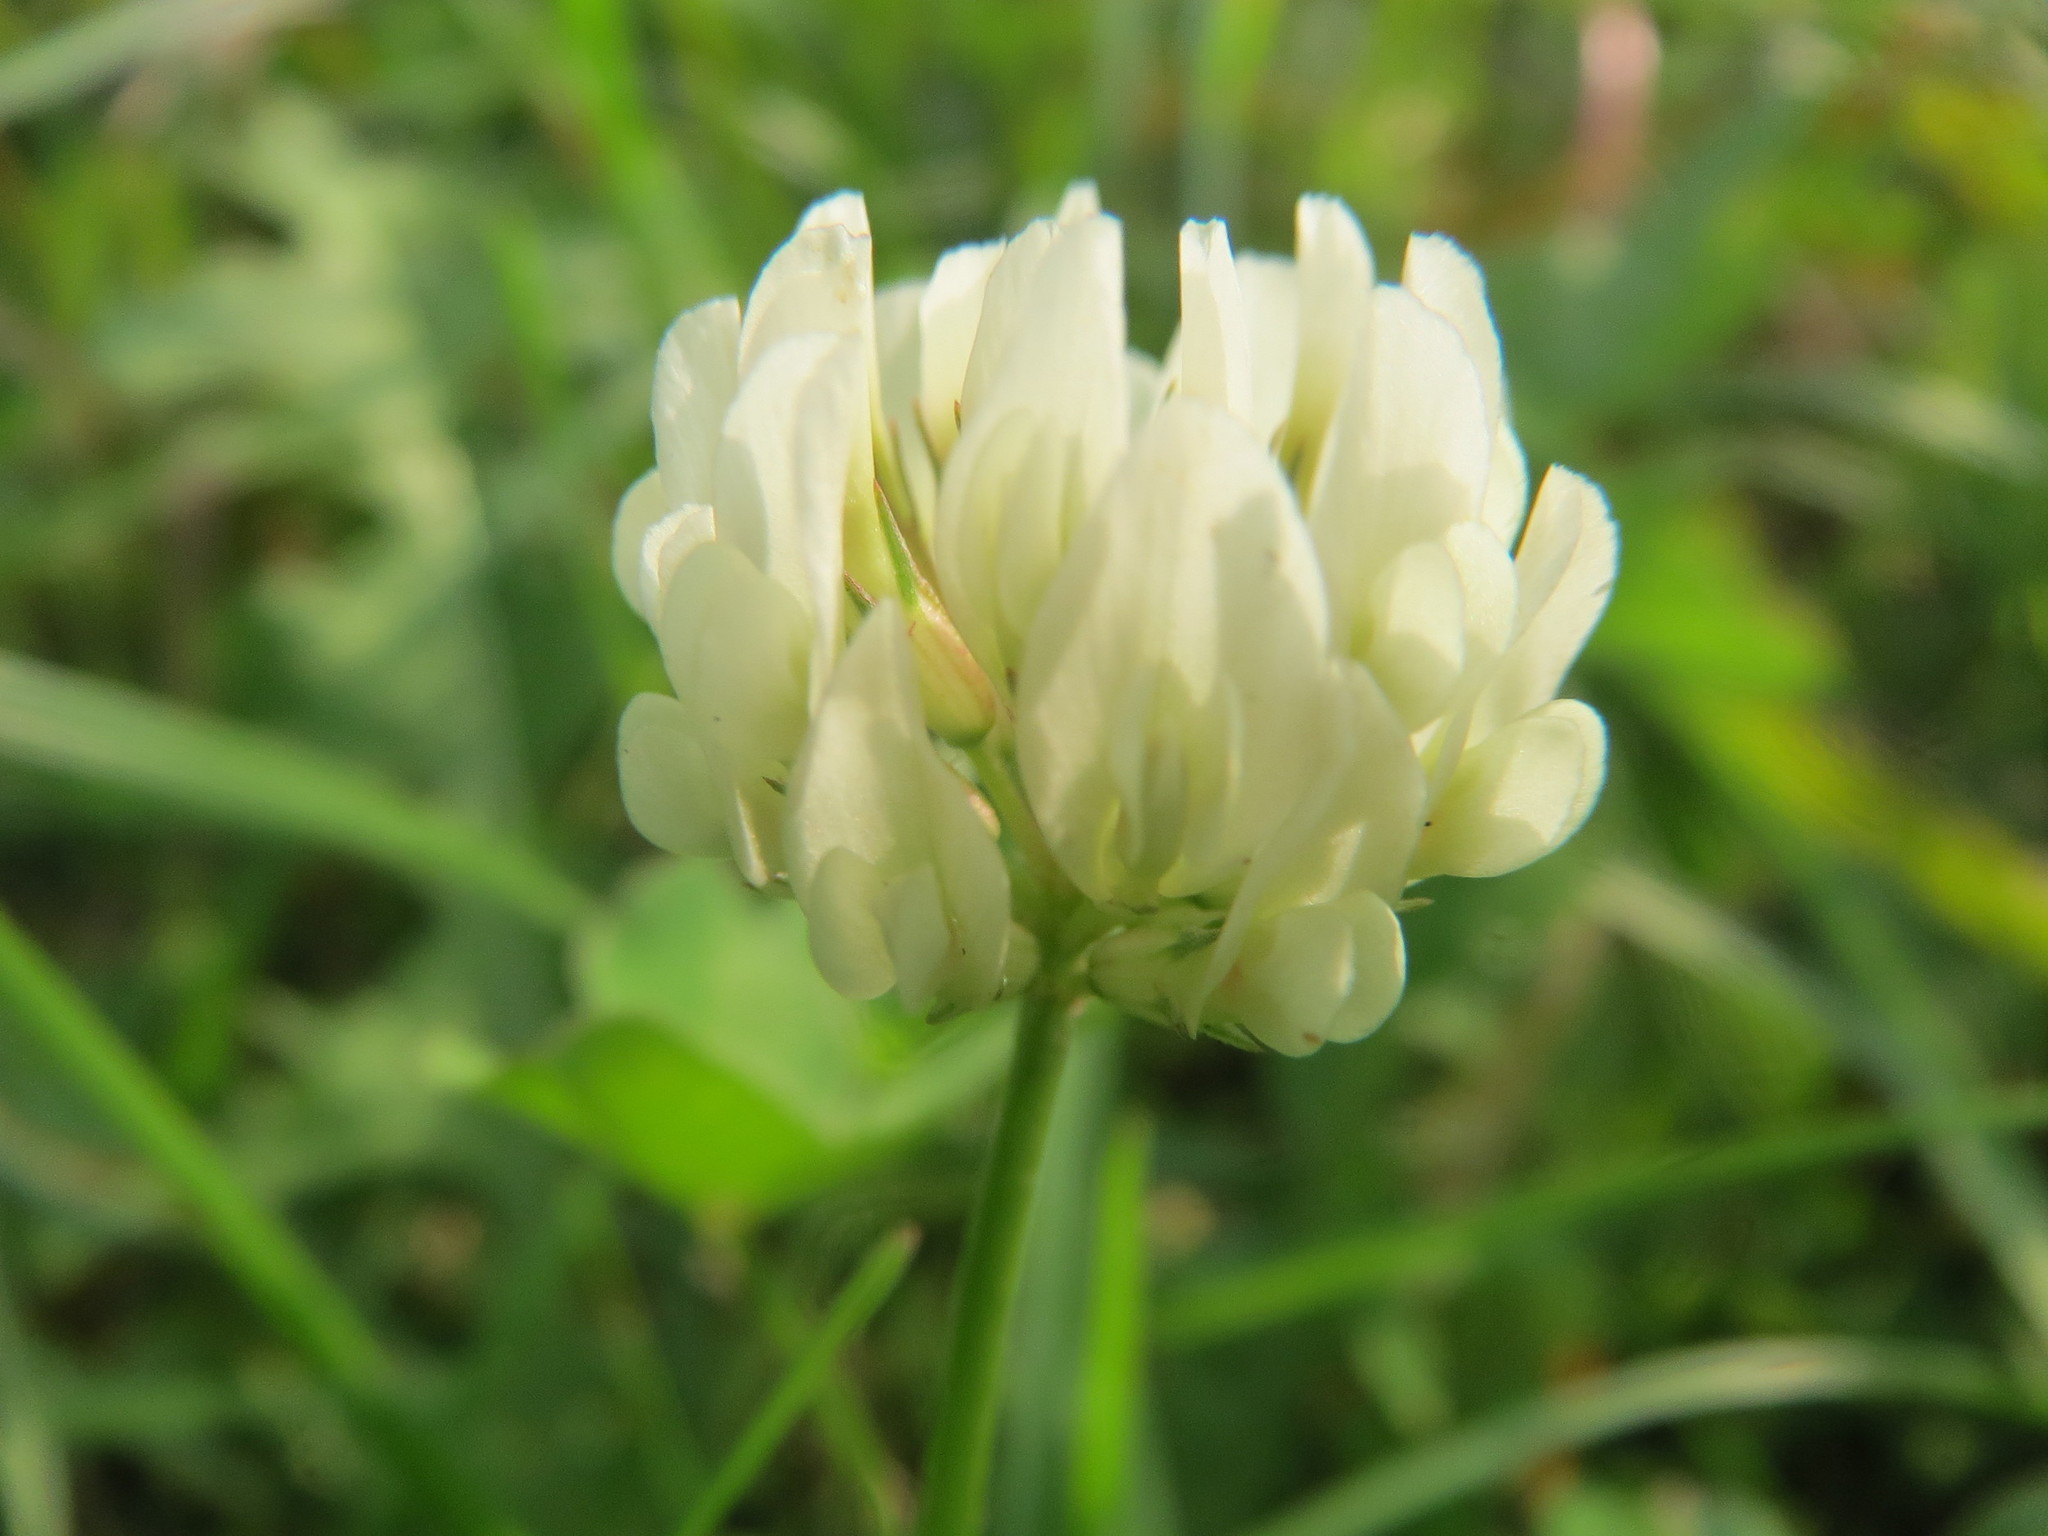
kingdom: Plantae
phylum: Tracheophyta
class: Magnoliopsida
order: Fabales
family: Fabaceae
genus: Trifolium
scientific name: Trifolium repens
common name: White clover
